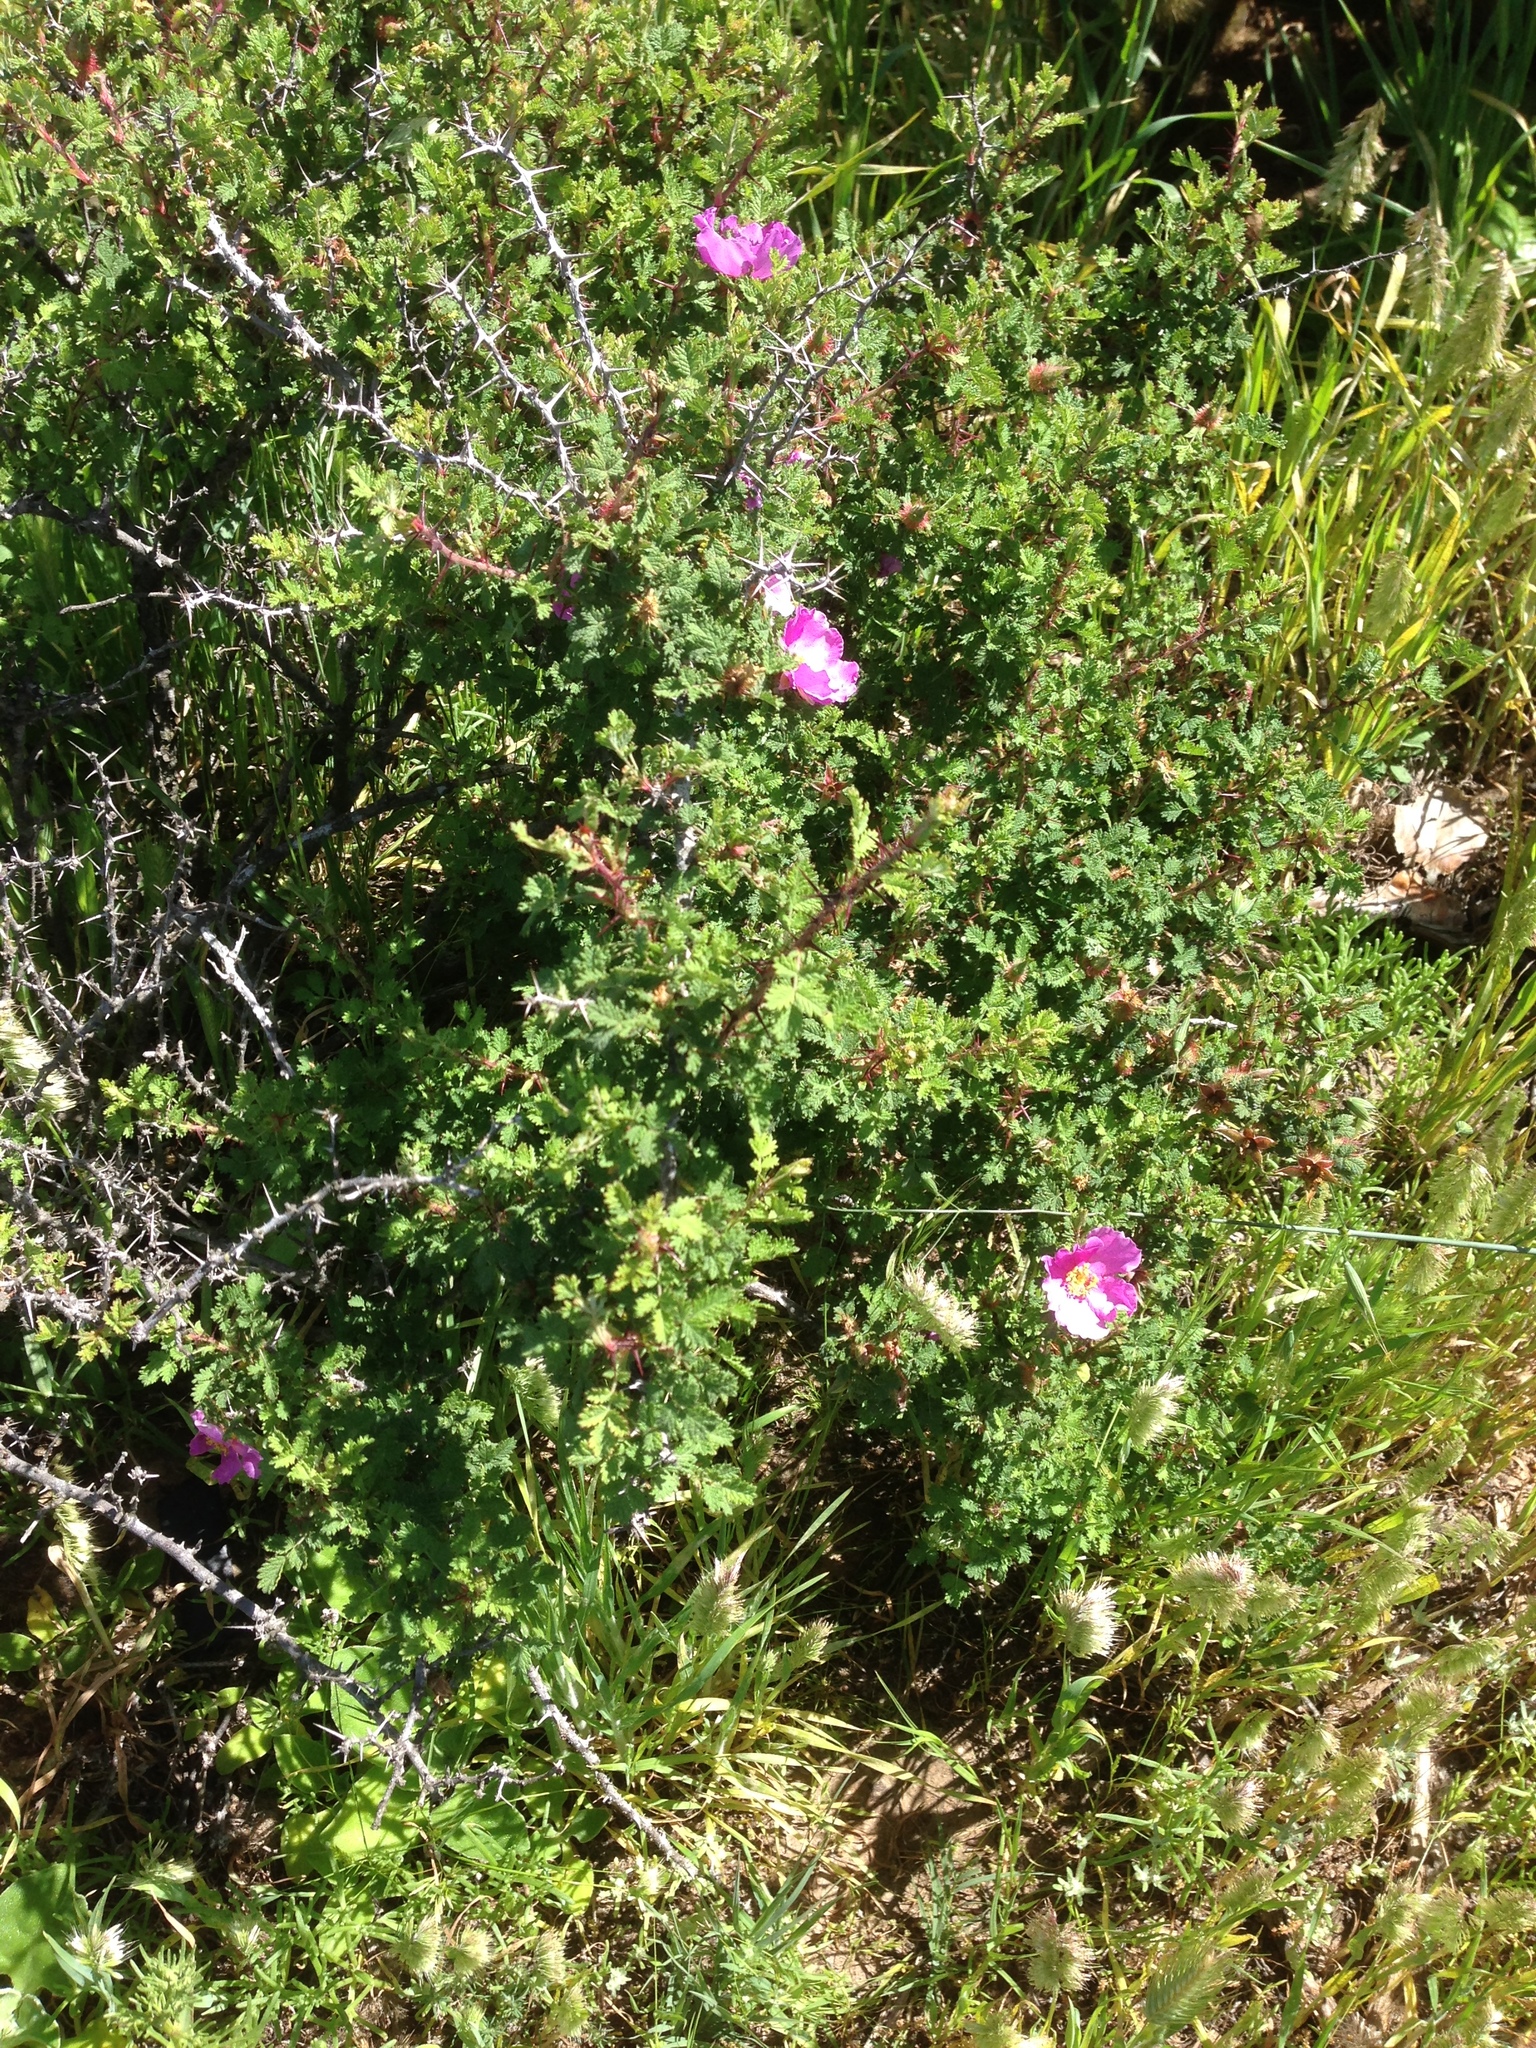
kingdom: Plantae
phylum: Tracheophyta
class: Magnoliopsida
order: Rosales
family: Rosaceae
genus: Rosa
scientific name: Rosa minutifolia
